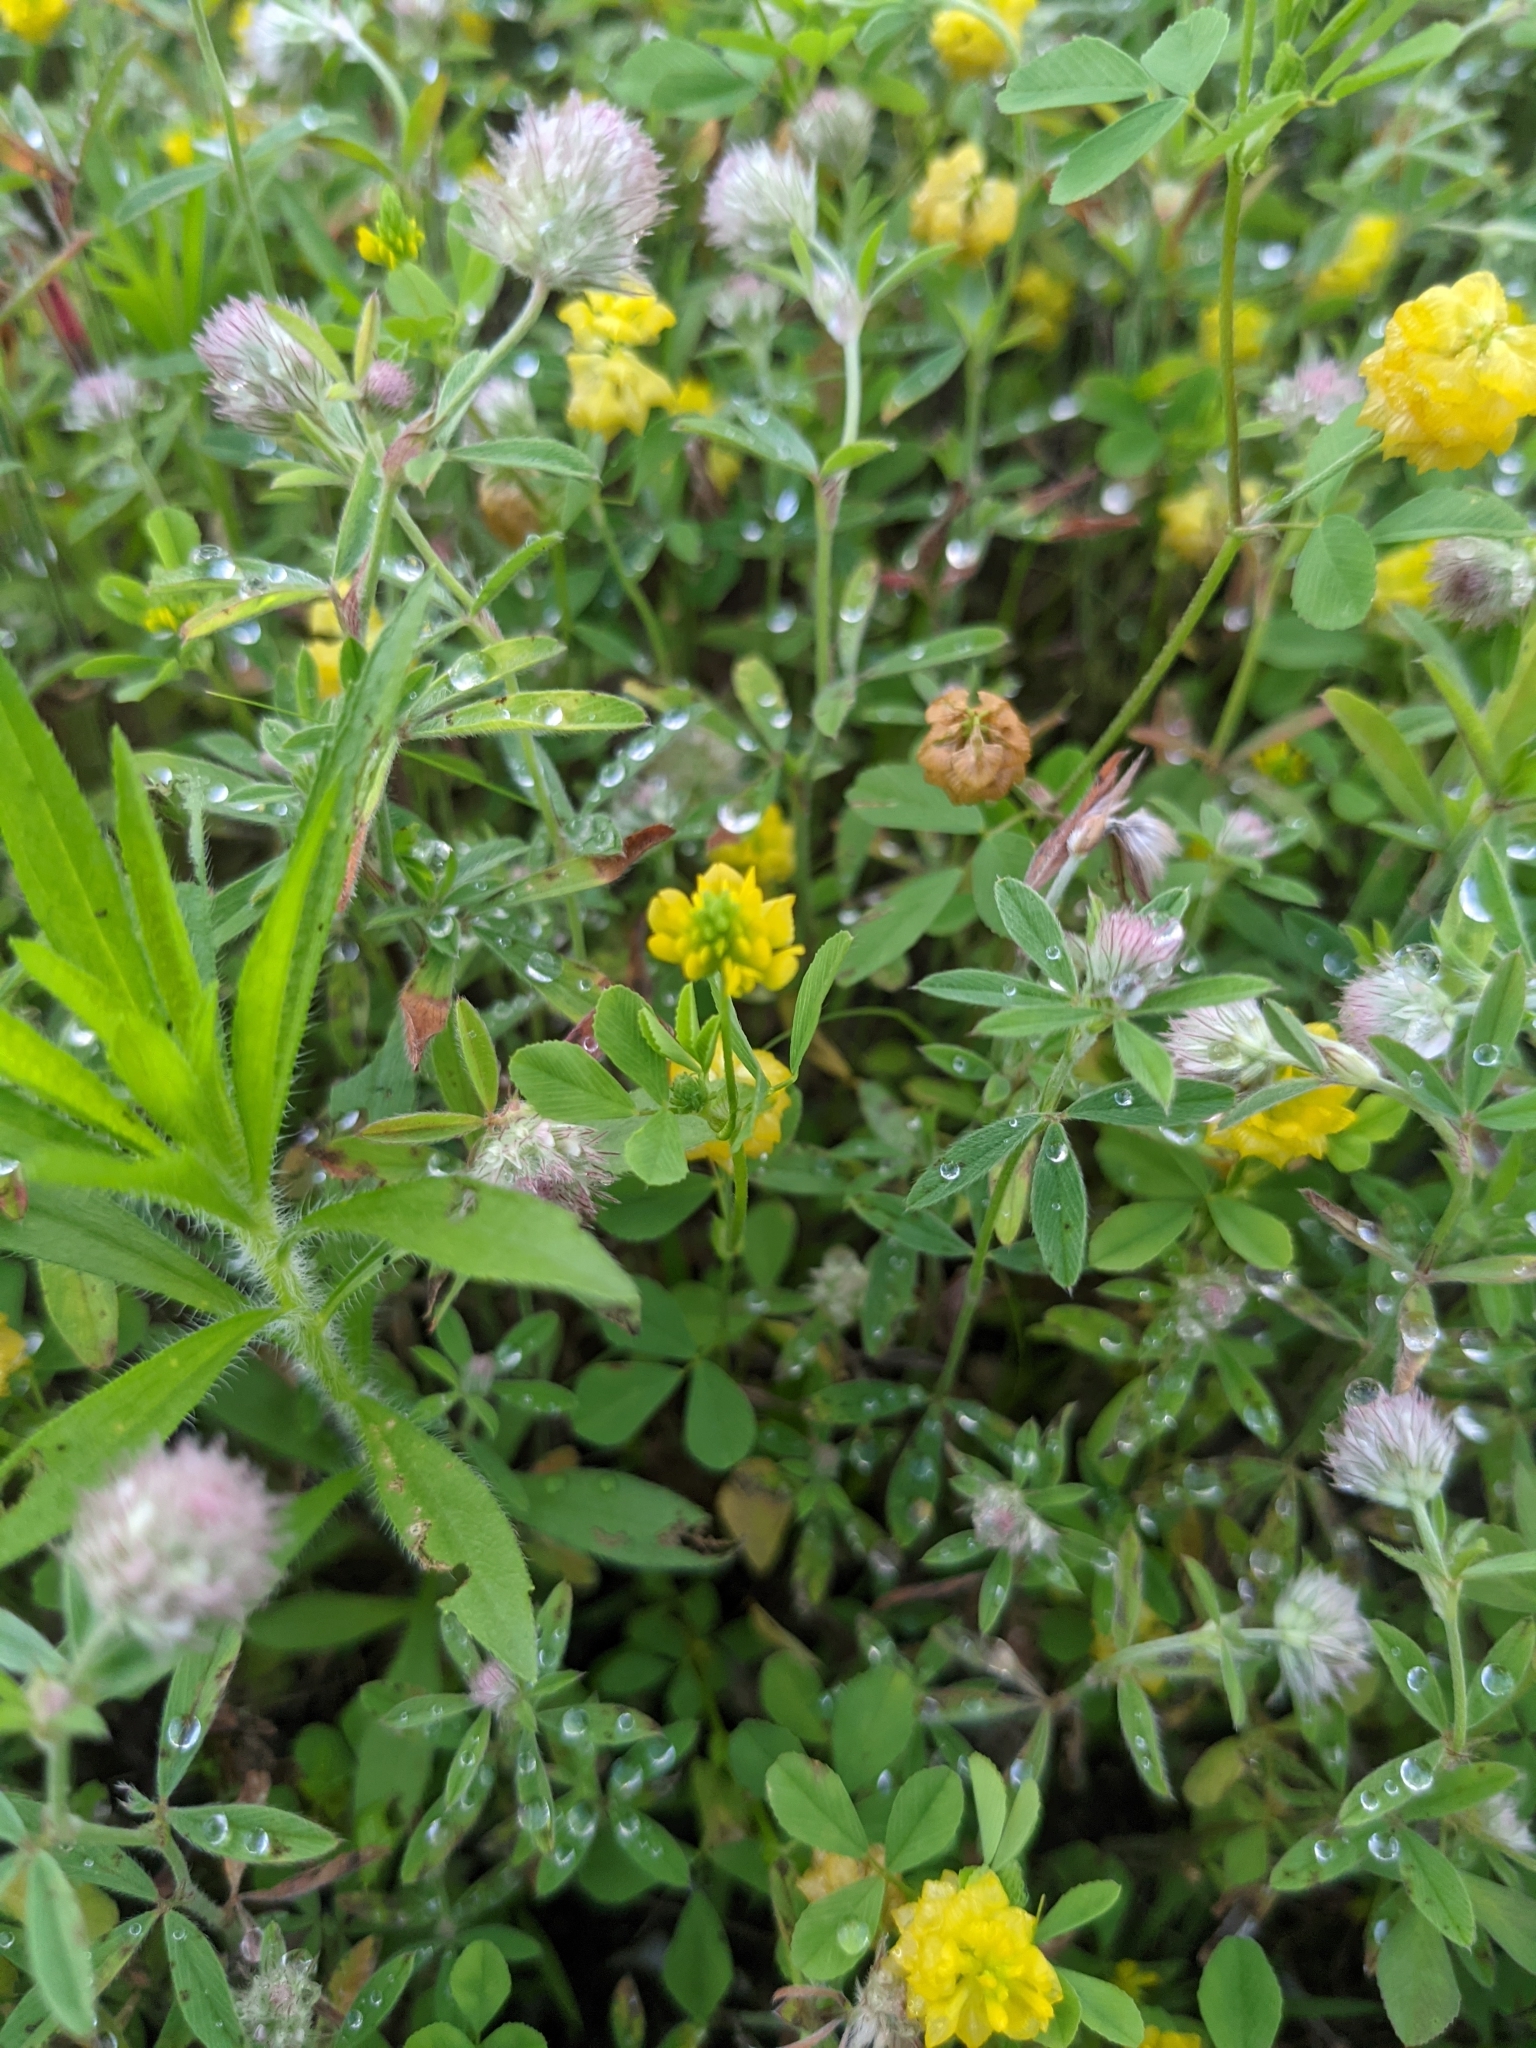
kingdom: Plantae
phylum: Tracheophyta
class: Magnoliopsida
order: Fabales
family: Fabaceae
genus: Trifolium
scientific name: Trifolium campestre
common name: Field clover
